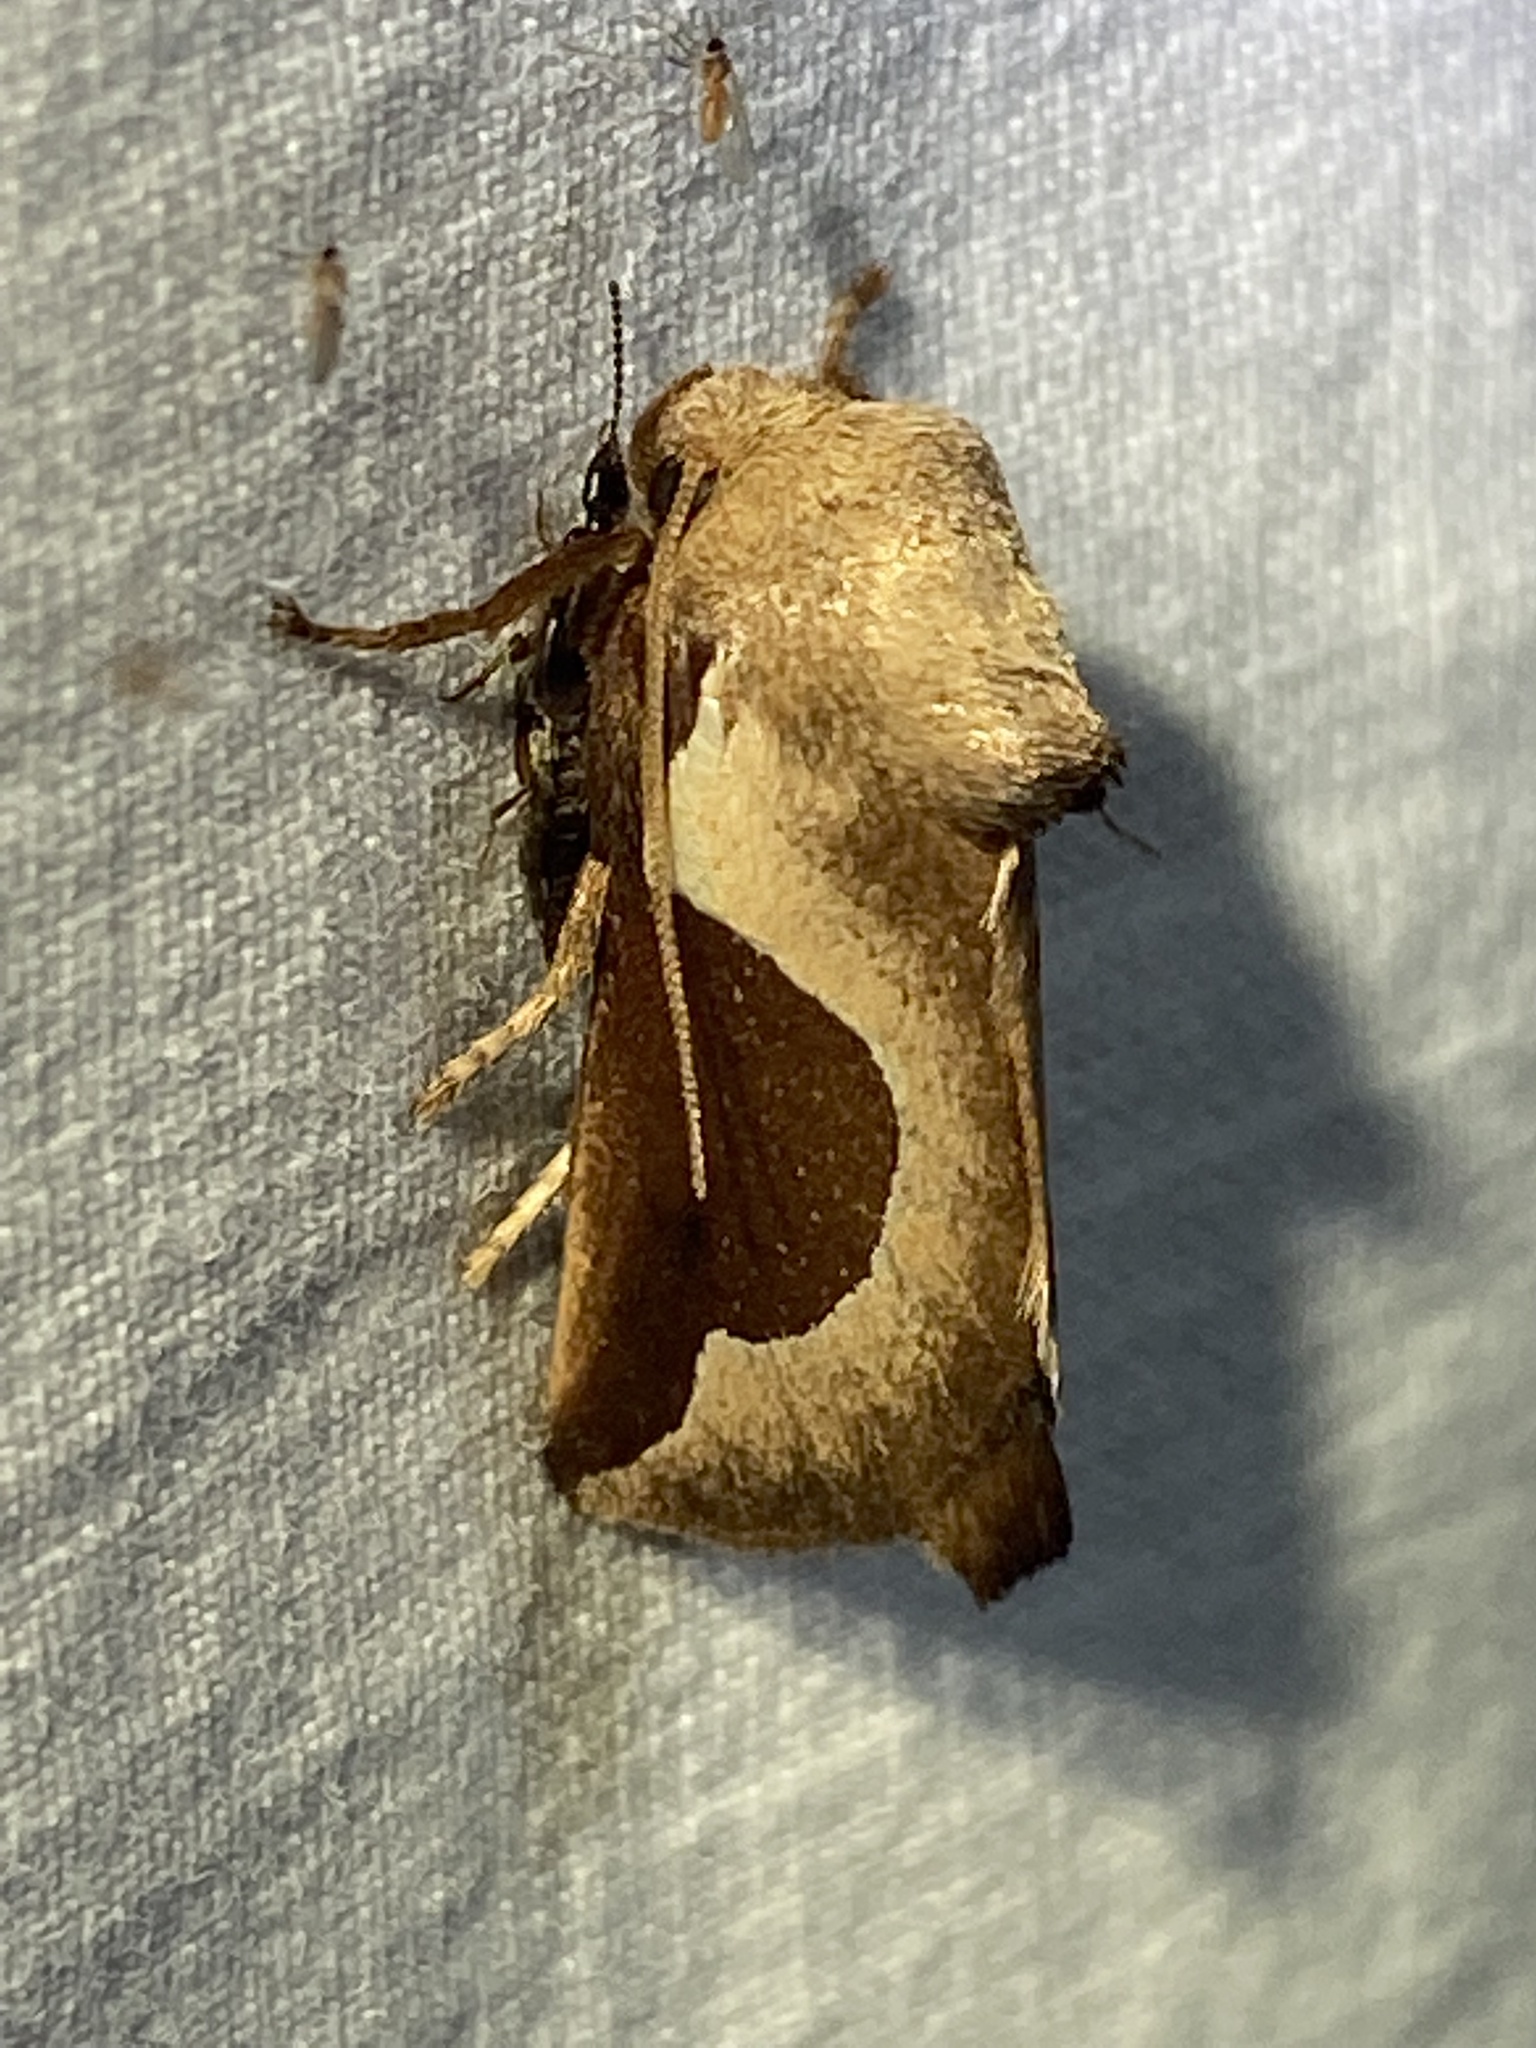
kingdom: Animalia
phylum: Arthropoda
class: Insecta
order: Lepidoptera
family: Limacodidae
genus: Prolimacodes
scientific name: Prolimacodes badia
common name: Skiff moth
